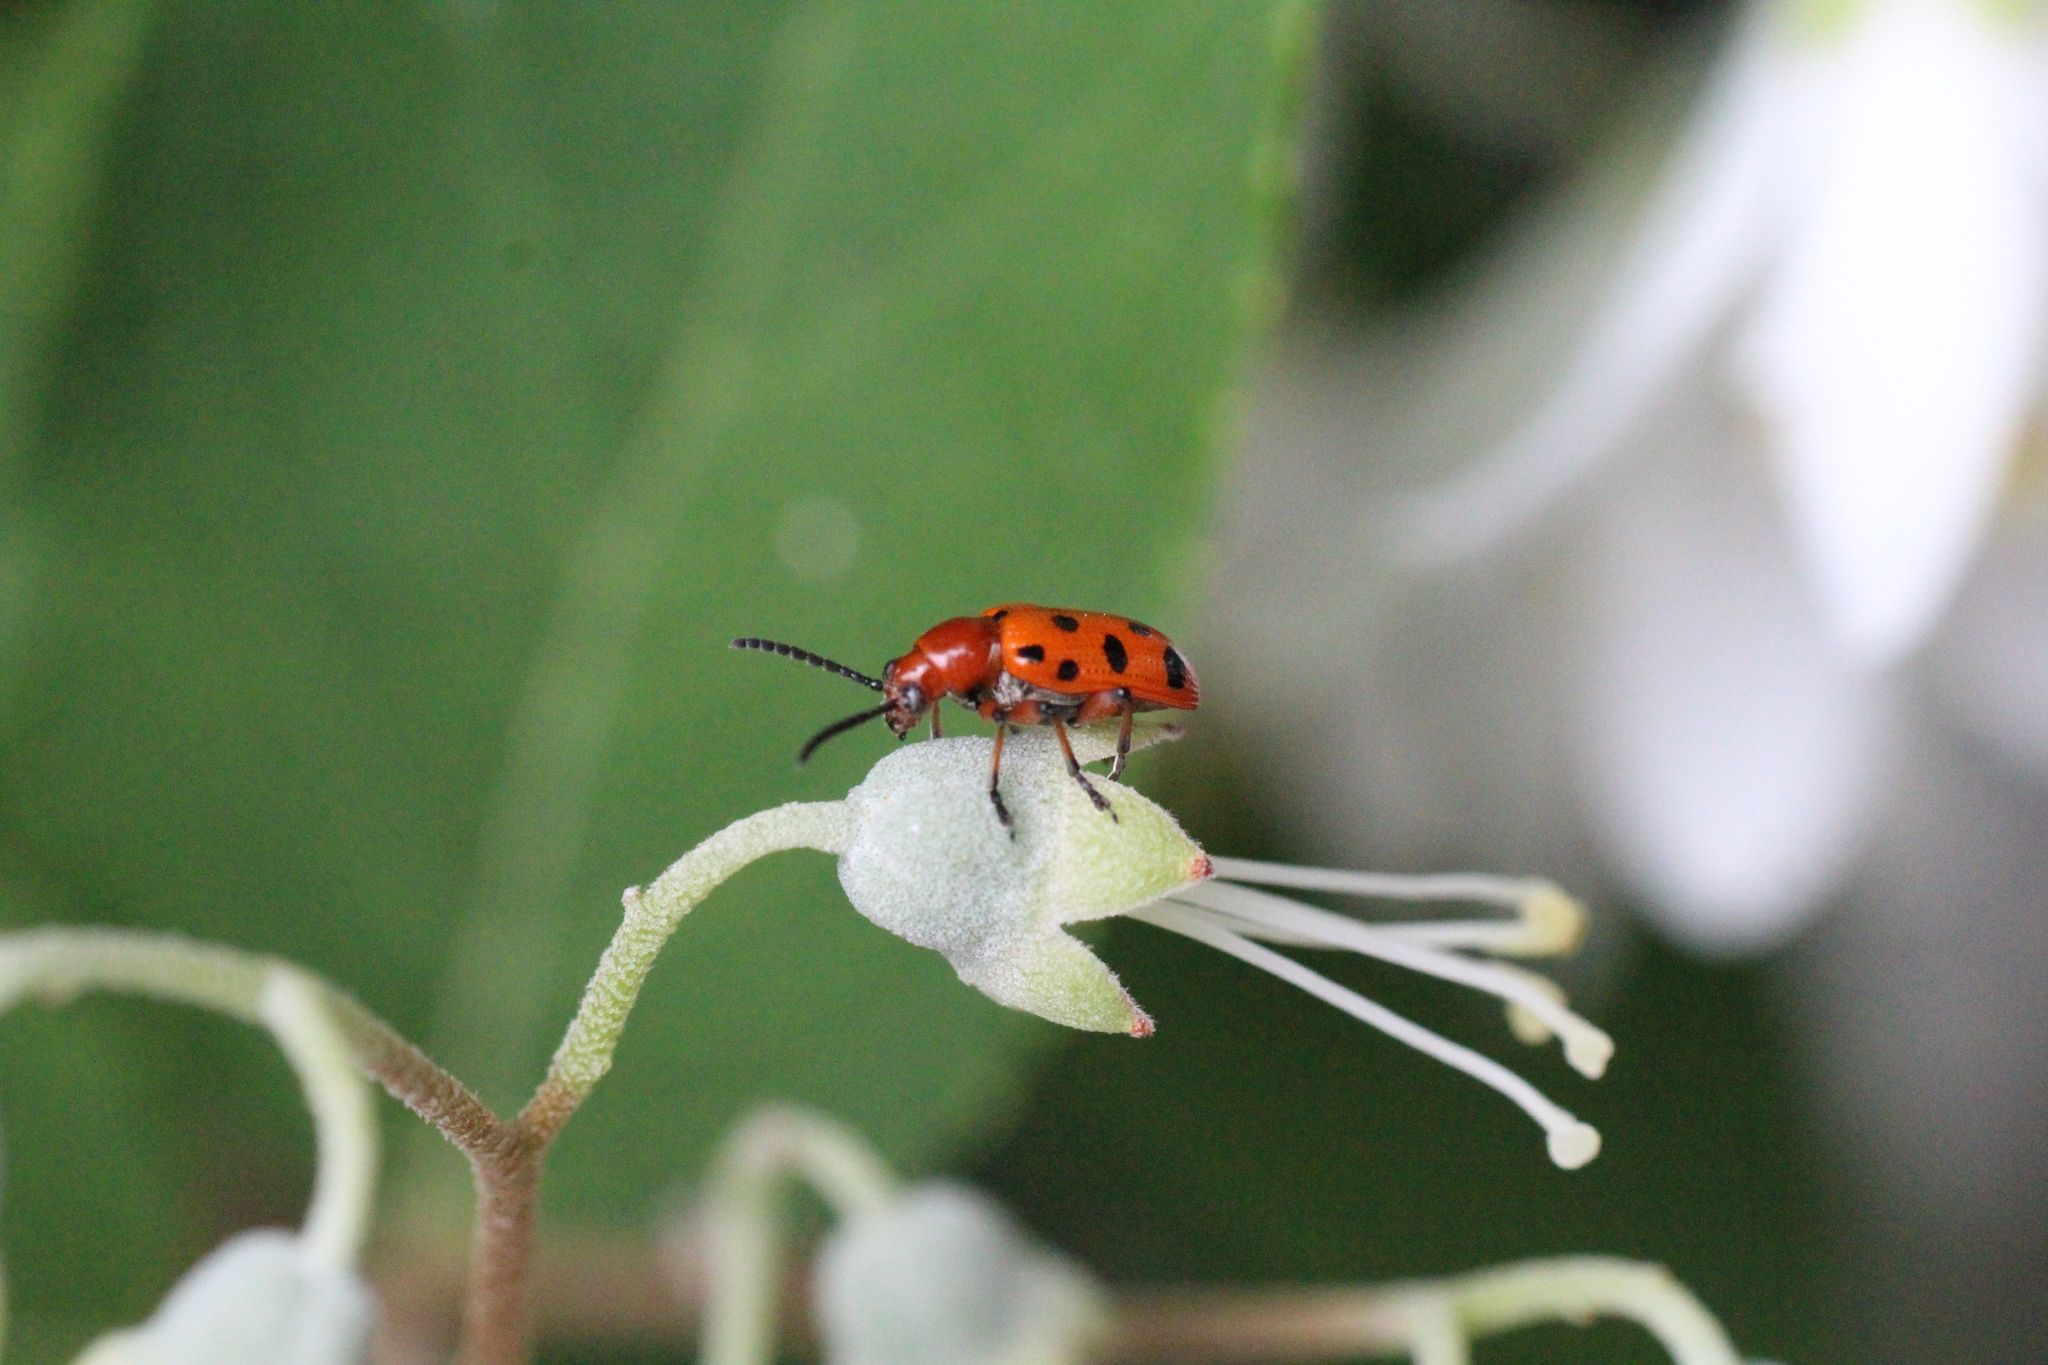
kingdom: Animalia
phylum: Arthropoda
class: Insecta
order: Coleoptera
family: Chrysomelidae
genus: Crioceris
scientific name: Crioceris duodecimpunctata
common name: Twelve-spotted asparagus beetle
